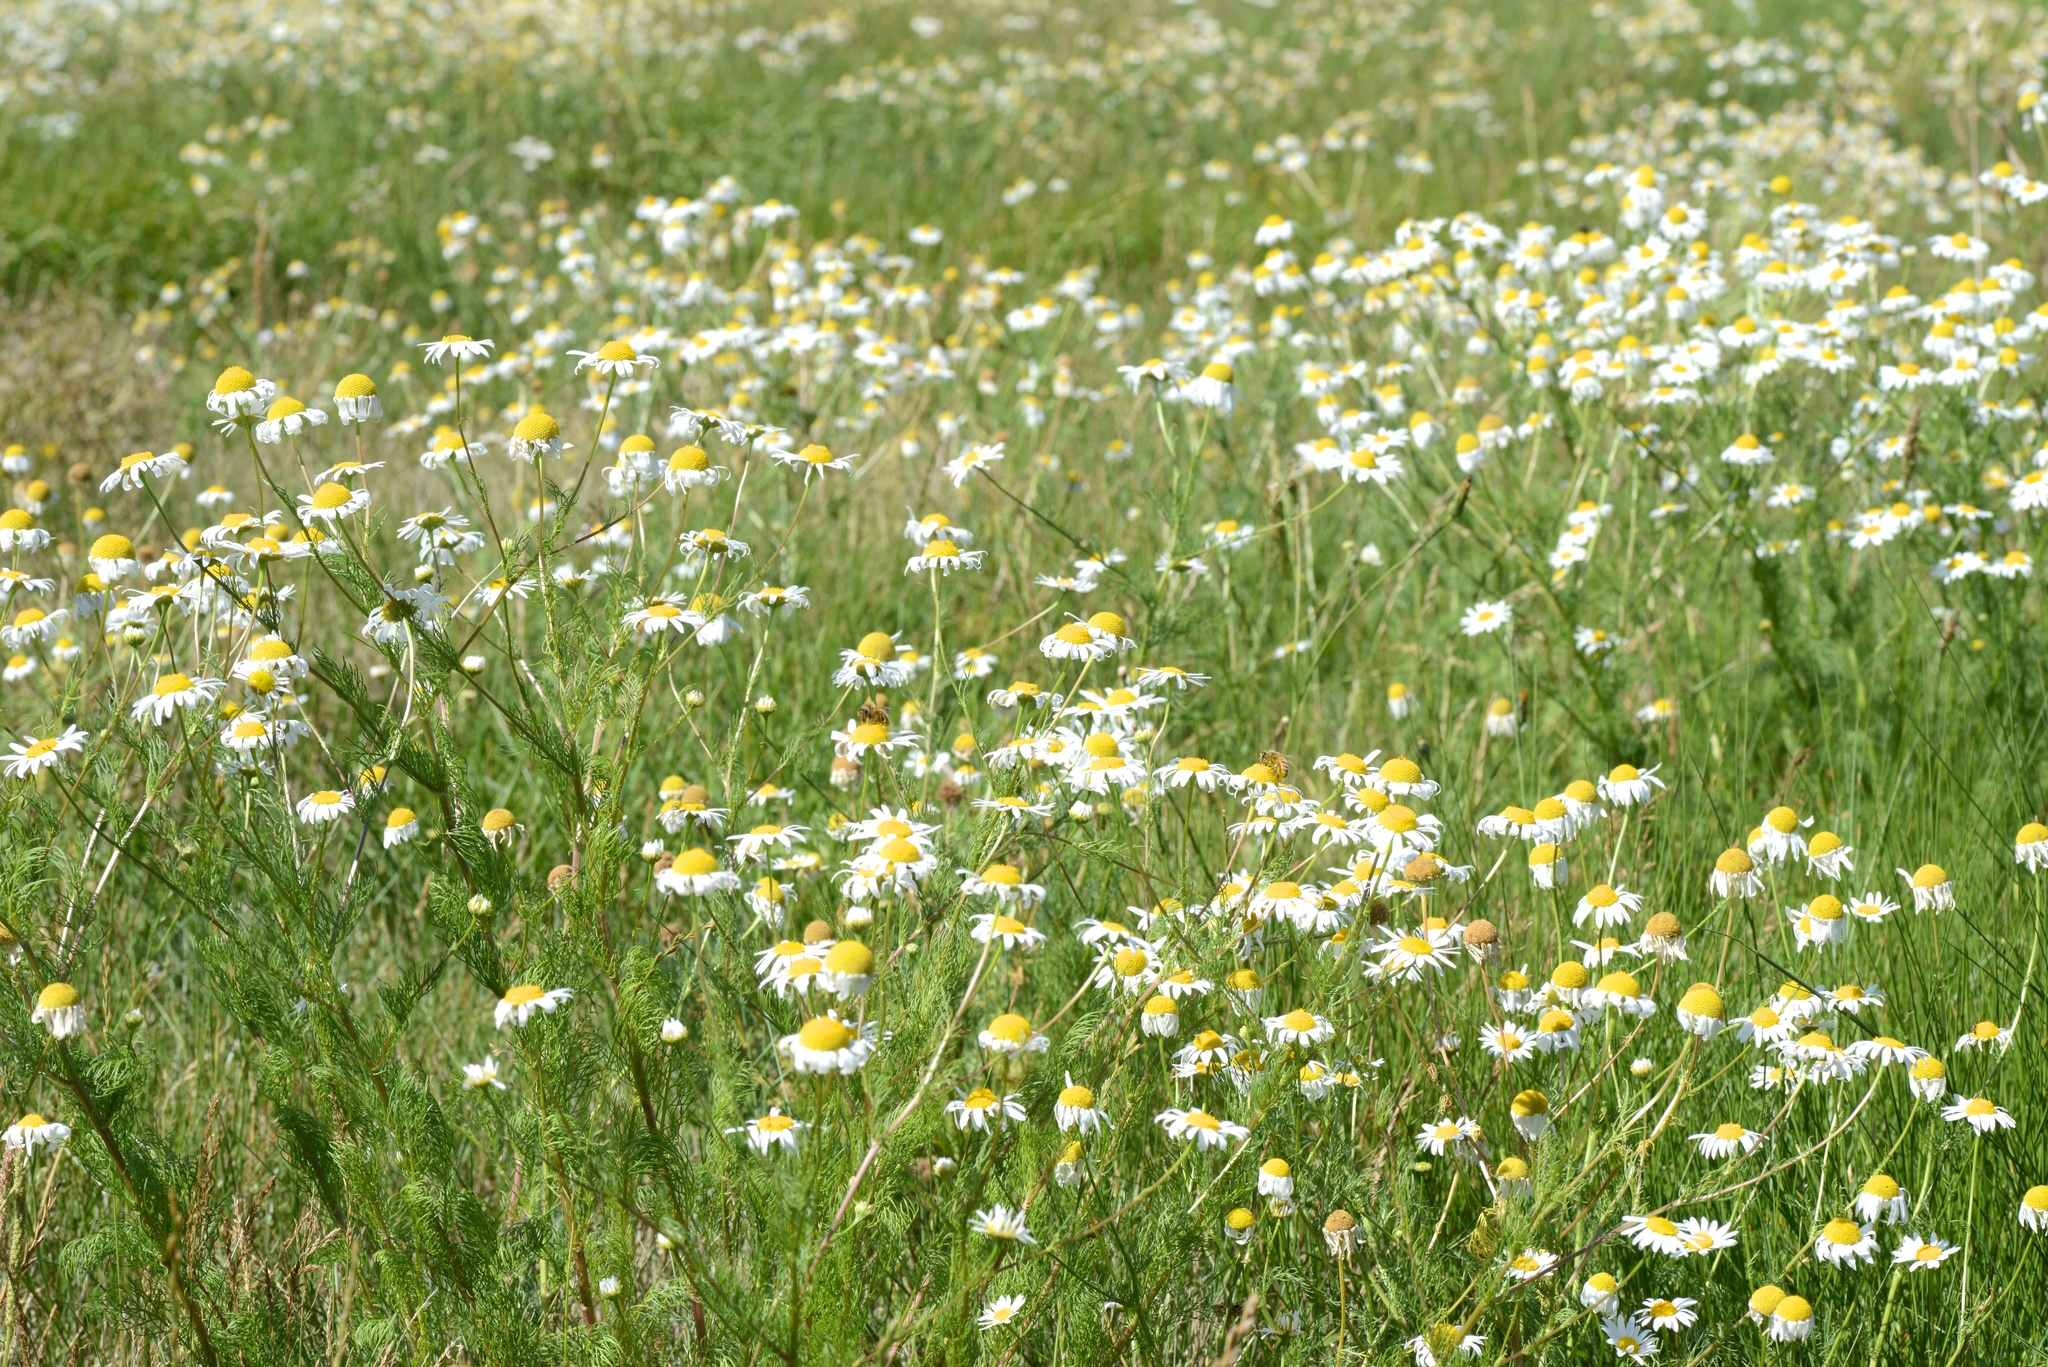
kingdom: Plantae
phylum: Tracheophyta
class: Magnoliopsida
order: Asterales
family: Asteraceae
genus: Tripleurospermum
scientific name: Tripleurospermum inodorum
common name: Scentless mayweed
